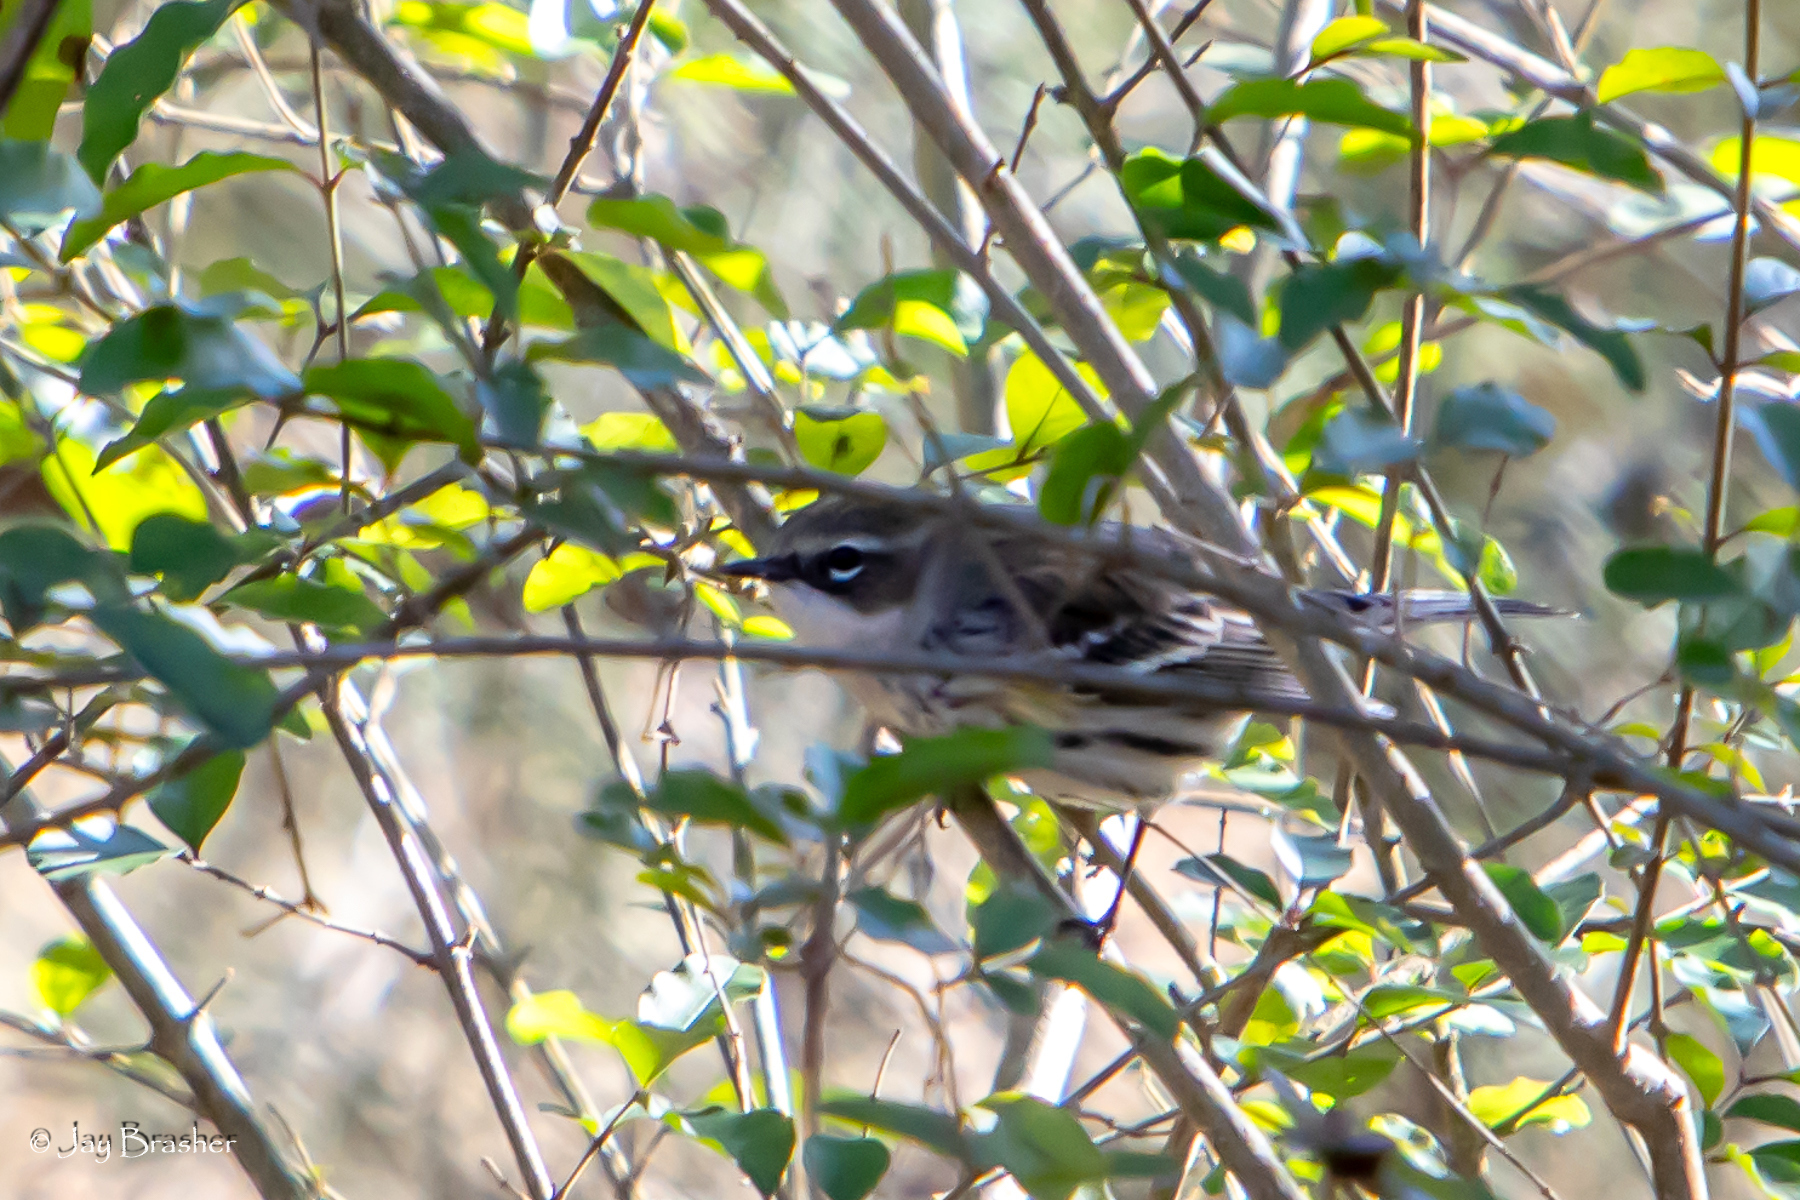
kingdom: Animalia
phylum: Chordata
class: Aves
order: Passeriformes
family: Parulidae
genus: Setophaga
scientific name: Setophaga coronata
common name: Myrtle warbler
